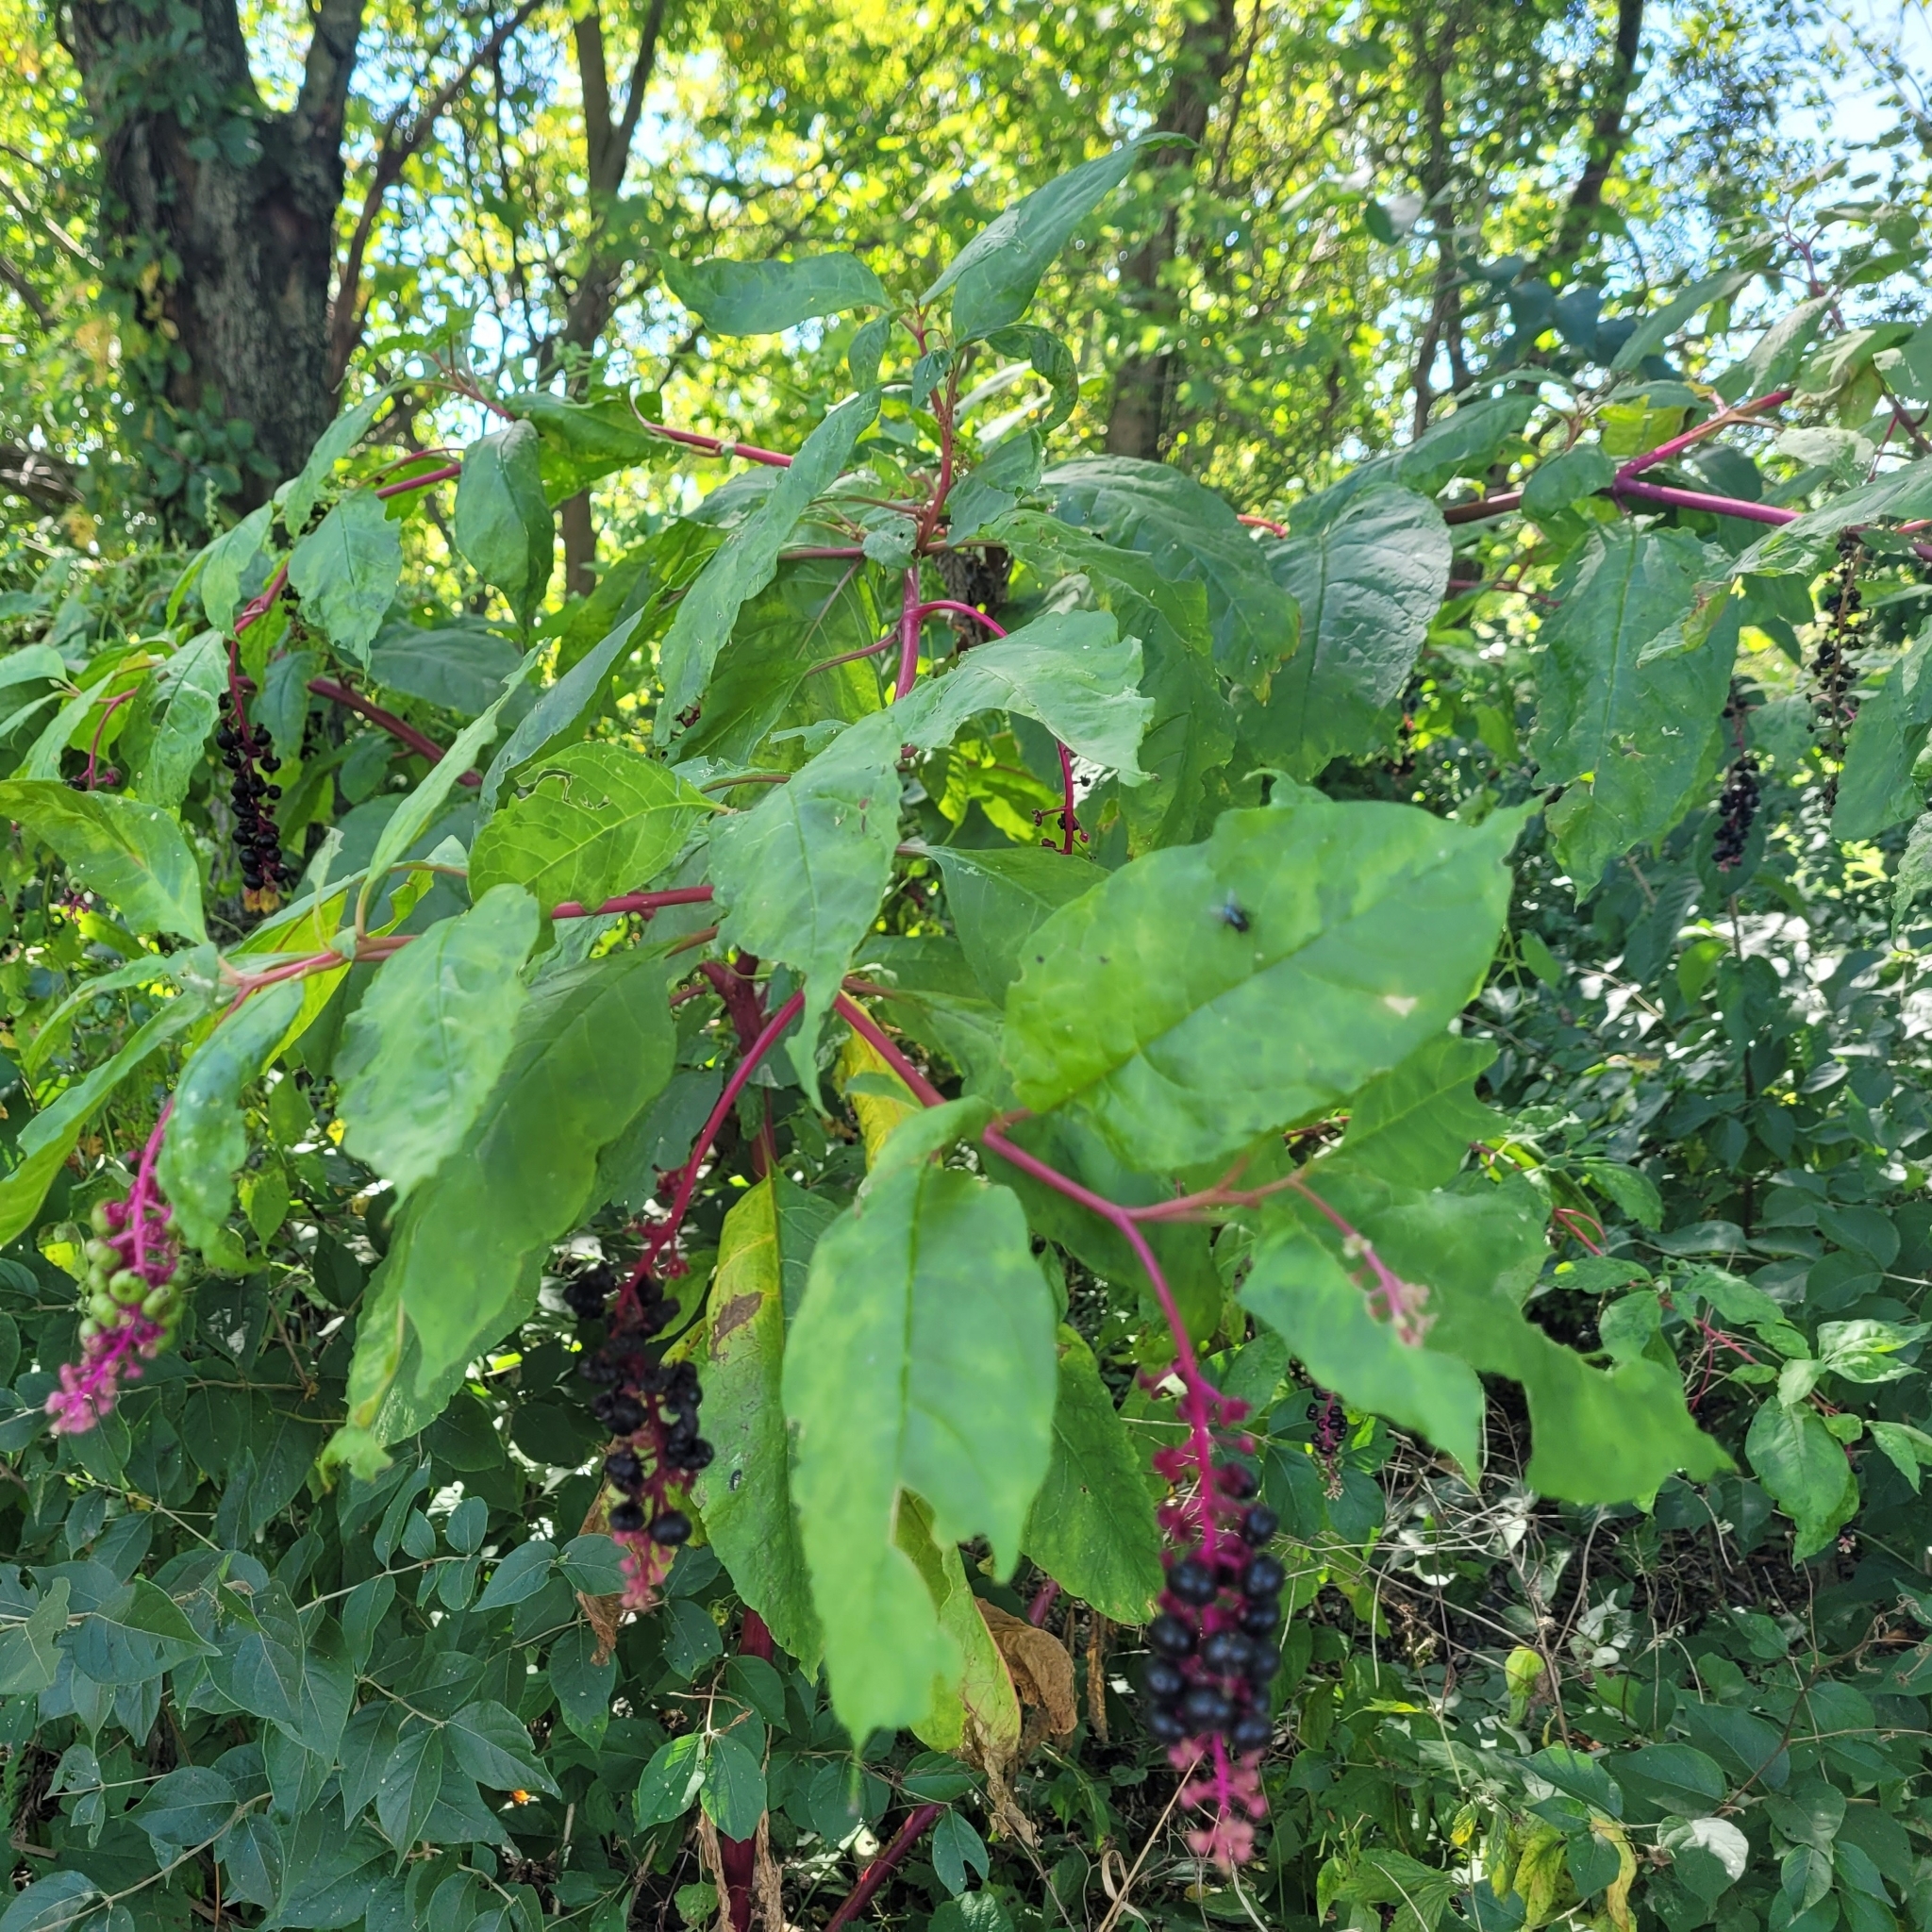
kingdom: Plantae
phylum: Tracheophyta
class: Magnoliopsida
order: Caryophyllales
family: Phytolaccaceae
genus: Phytolacca
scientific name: Phytolacca americana
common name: American pokeweed
